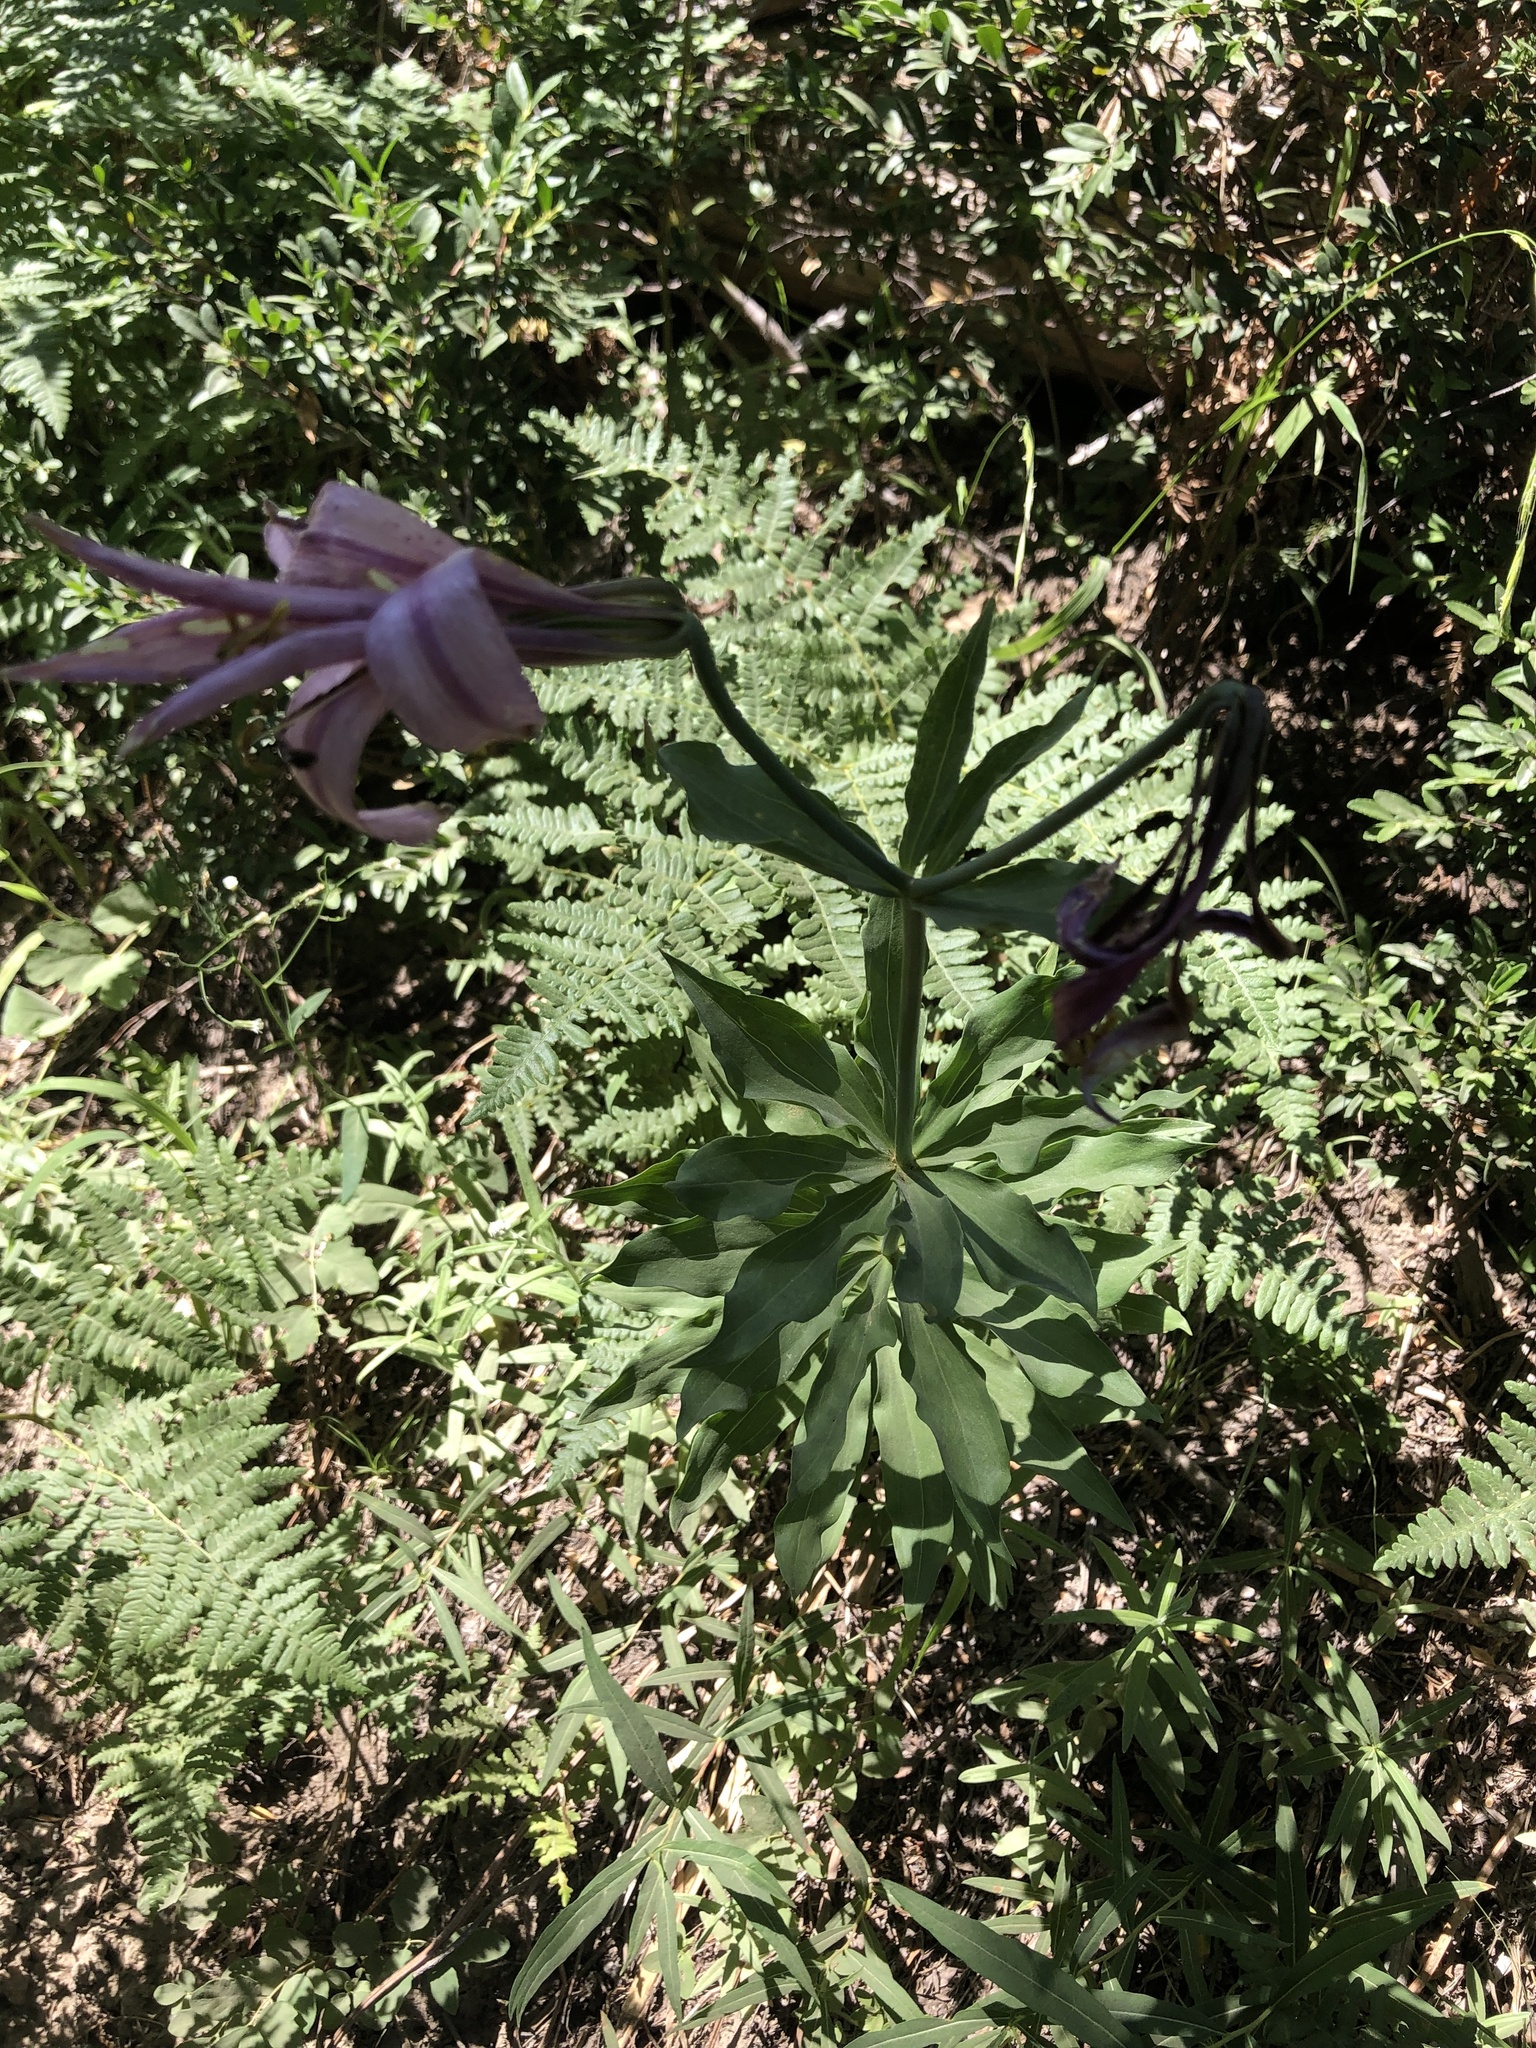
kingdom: Plantae
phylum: Tracheophyta
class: Liliopsida
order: Liliales
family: Liliaceae
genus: Lilium
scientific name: Lilium washingtonianum
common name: Washington lily
